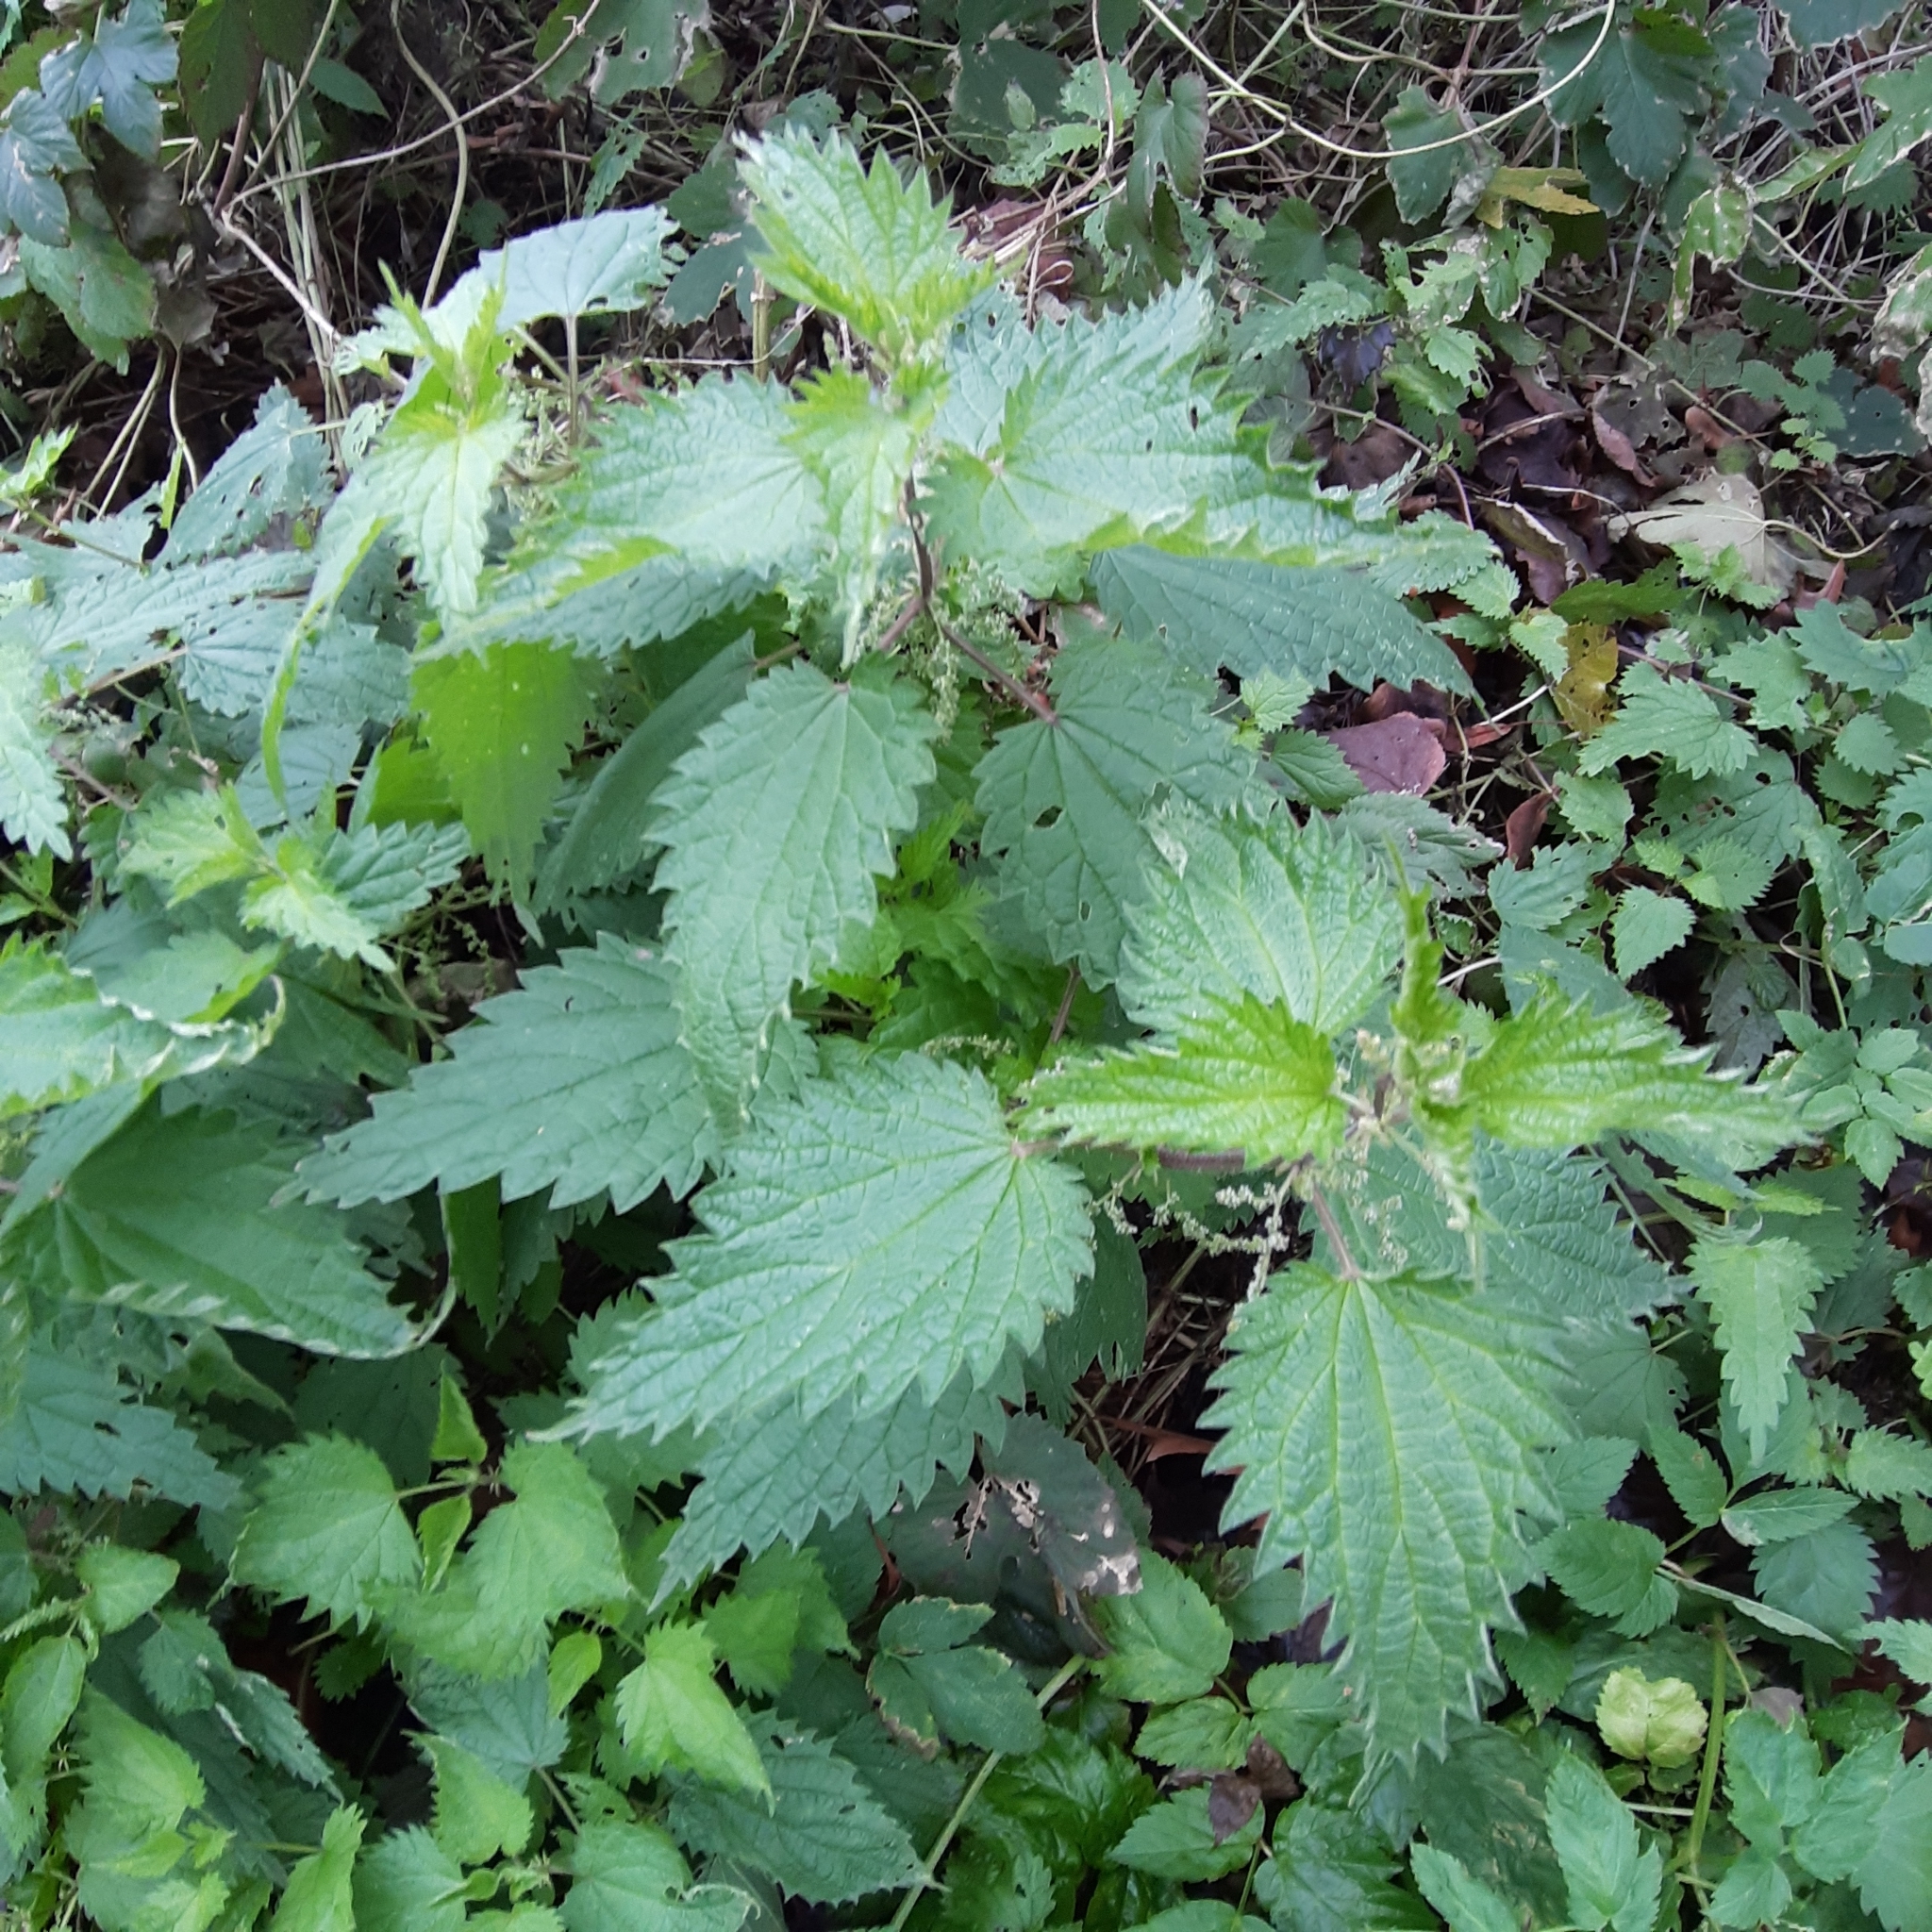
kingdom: Plantae
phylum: Tracheophyta
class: Magnoliopsida
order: Rosales
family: Urticaceae
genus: Urtica
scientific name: Urtica dioica
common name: Common nettle
